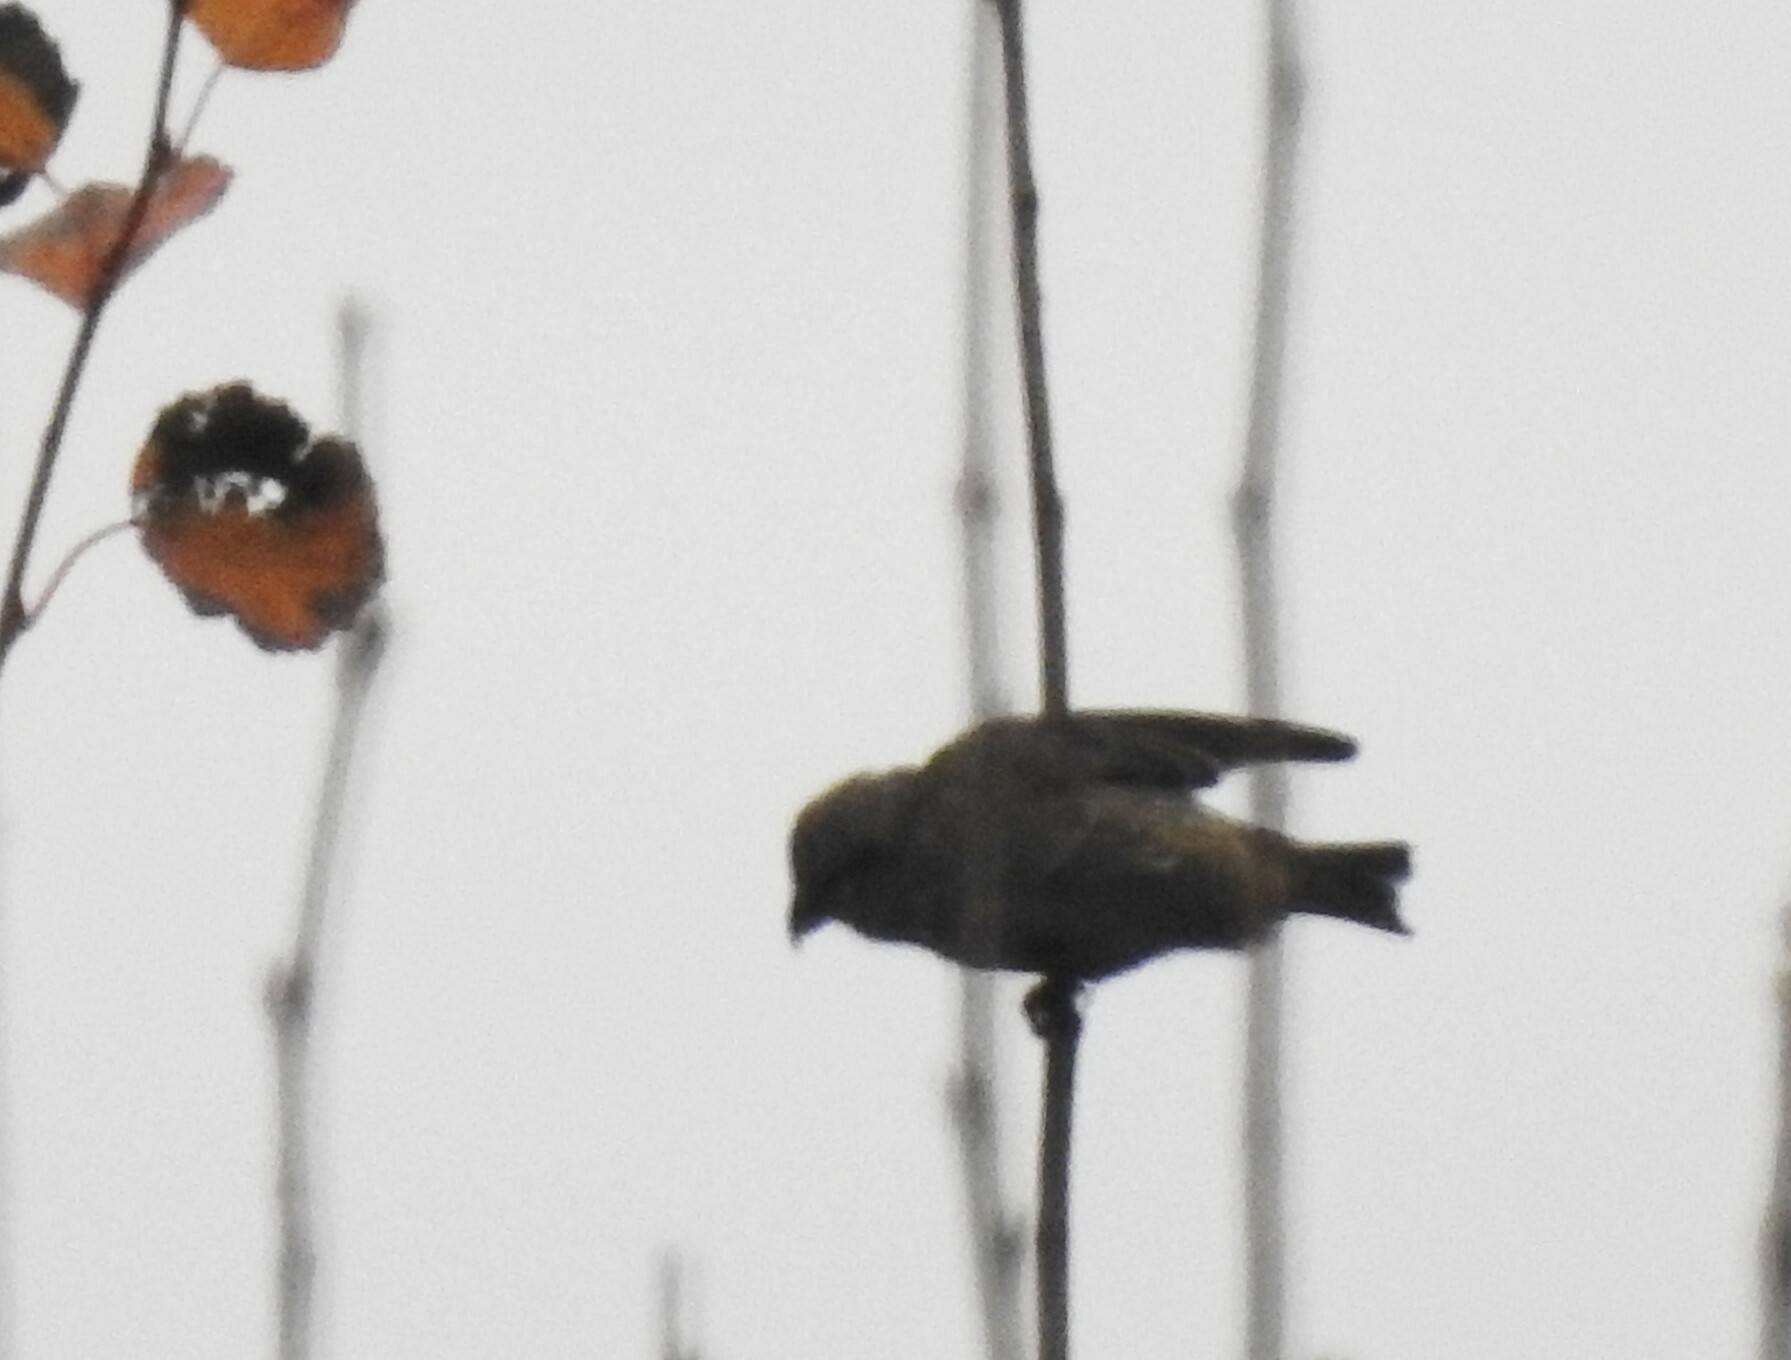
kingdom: Animalia
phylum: Chordata
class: Aves
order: Passeriformes
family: Fringillidae
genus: Loxia
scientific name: Loxia curvirostra
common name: Red crossbill
